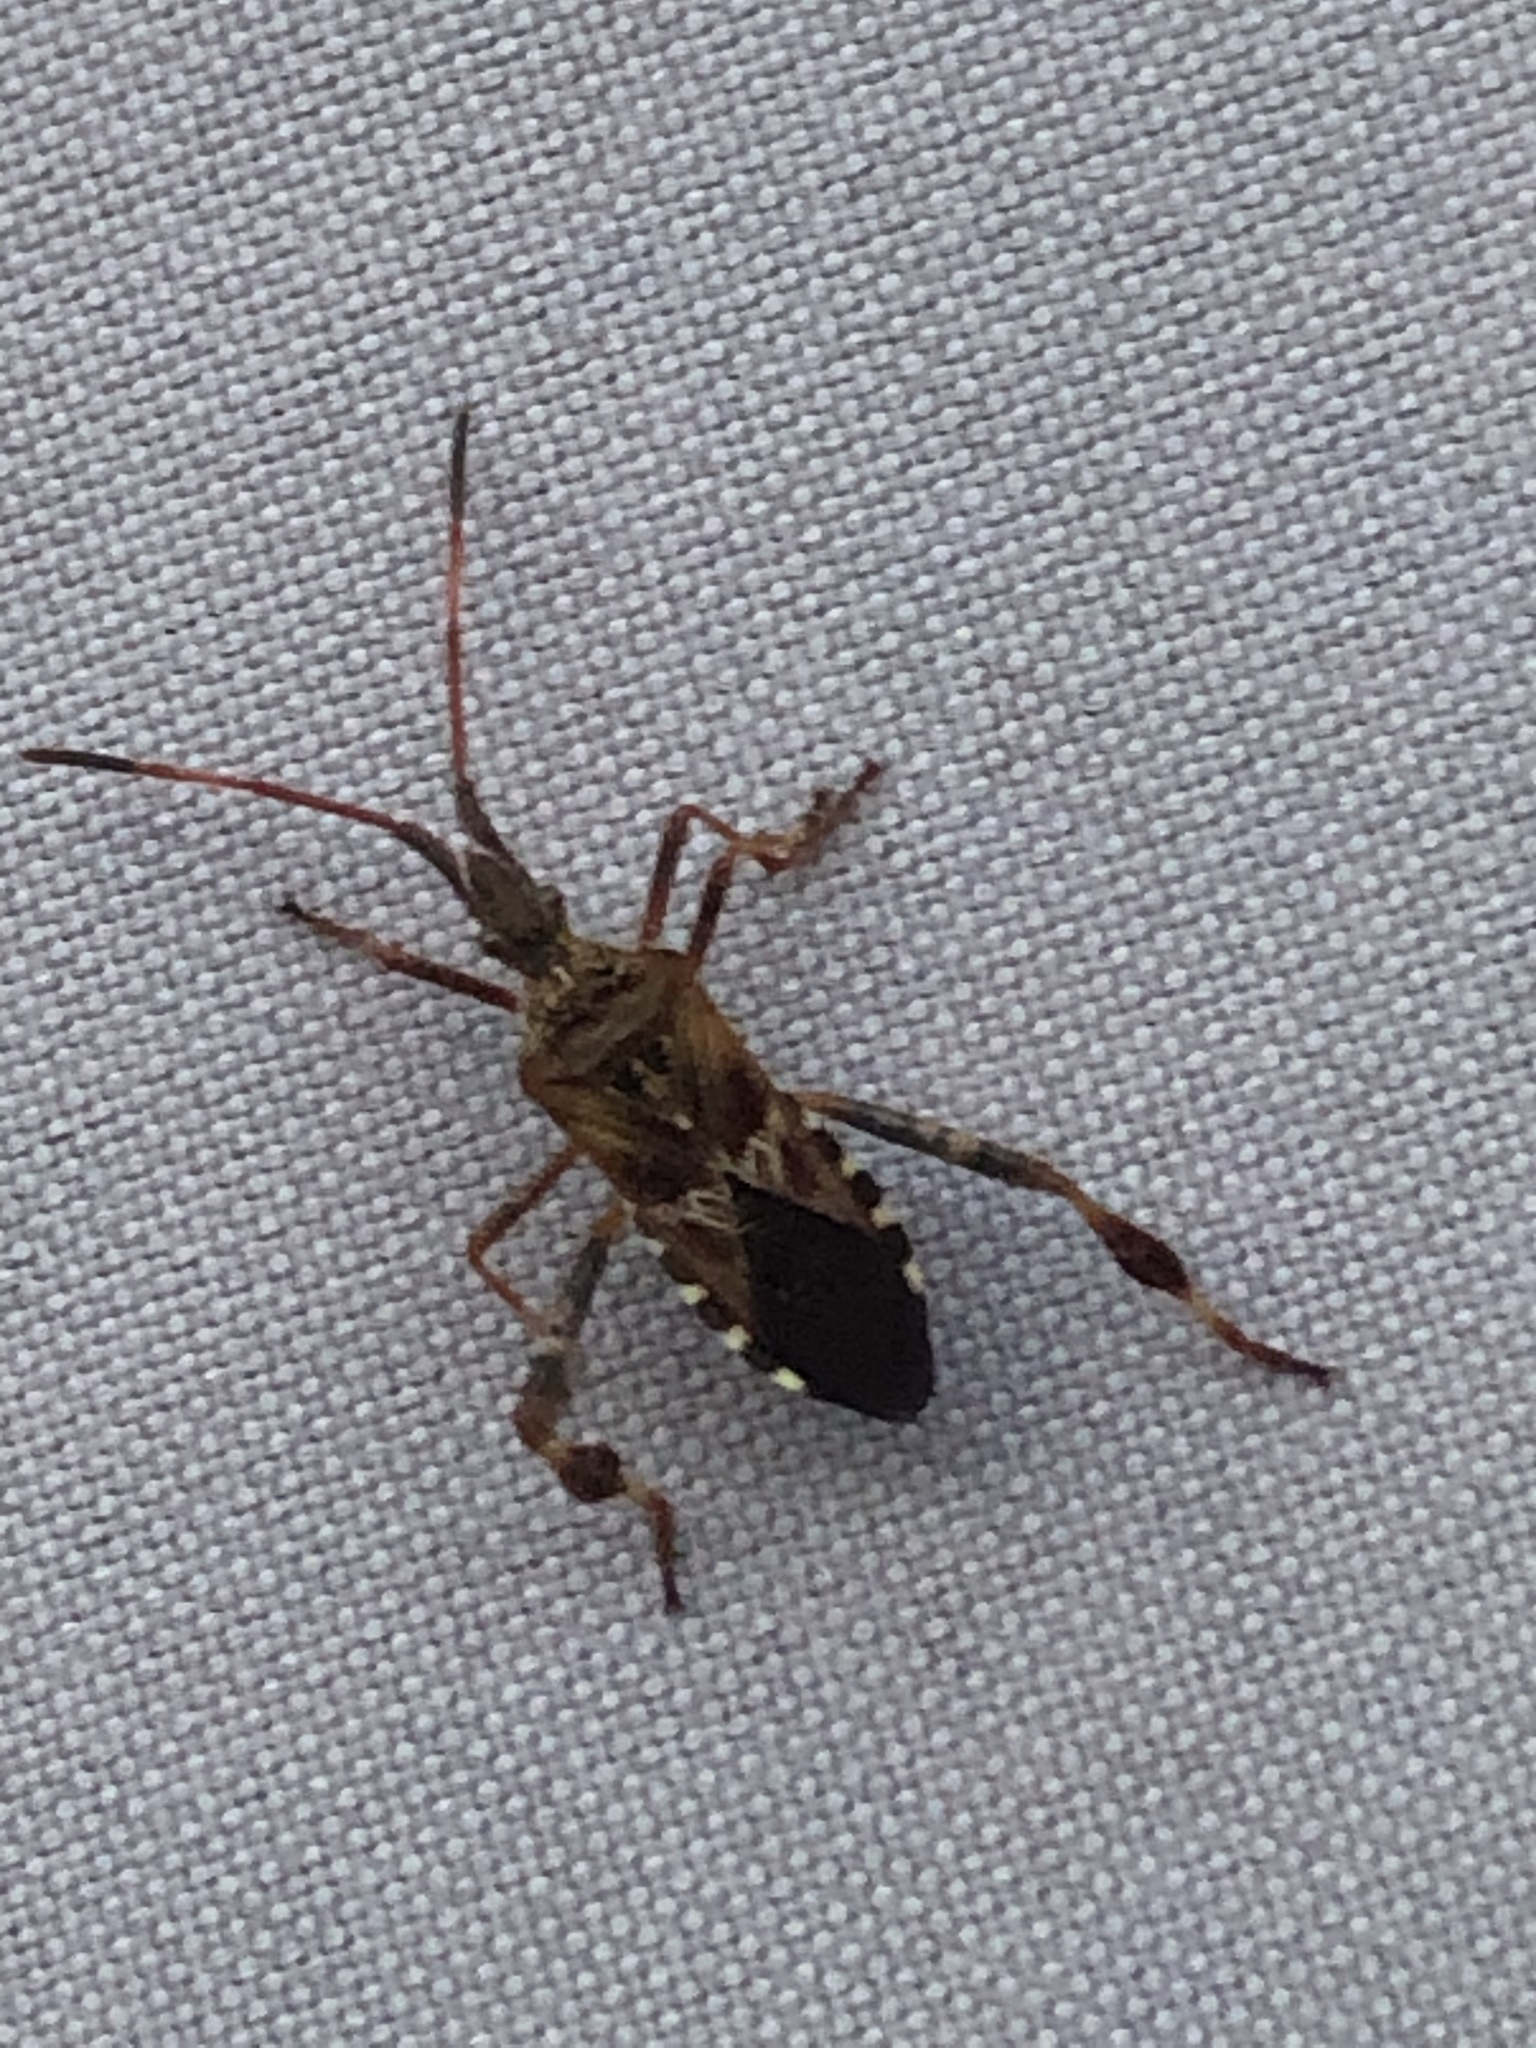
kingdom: Animalia
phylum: Arthropoda
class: Insecta
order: Hemiptera
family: Coreidae
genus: Leptoglossus
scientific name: Leptoglossus occidentalis
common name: Western conifer-seed bug
